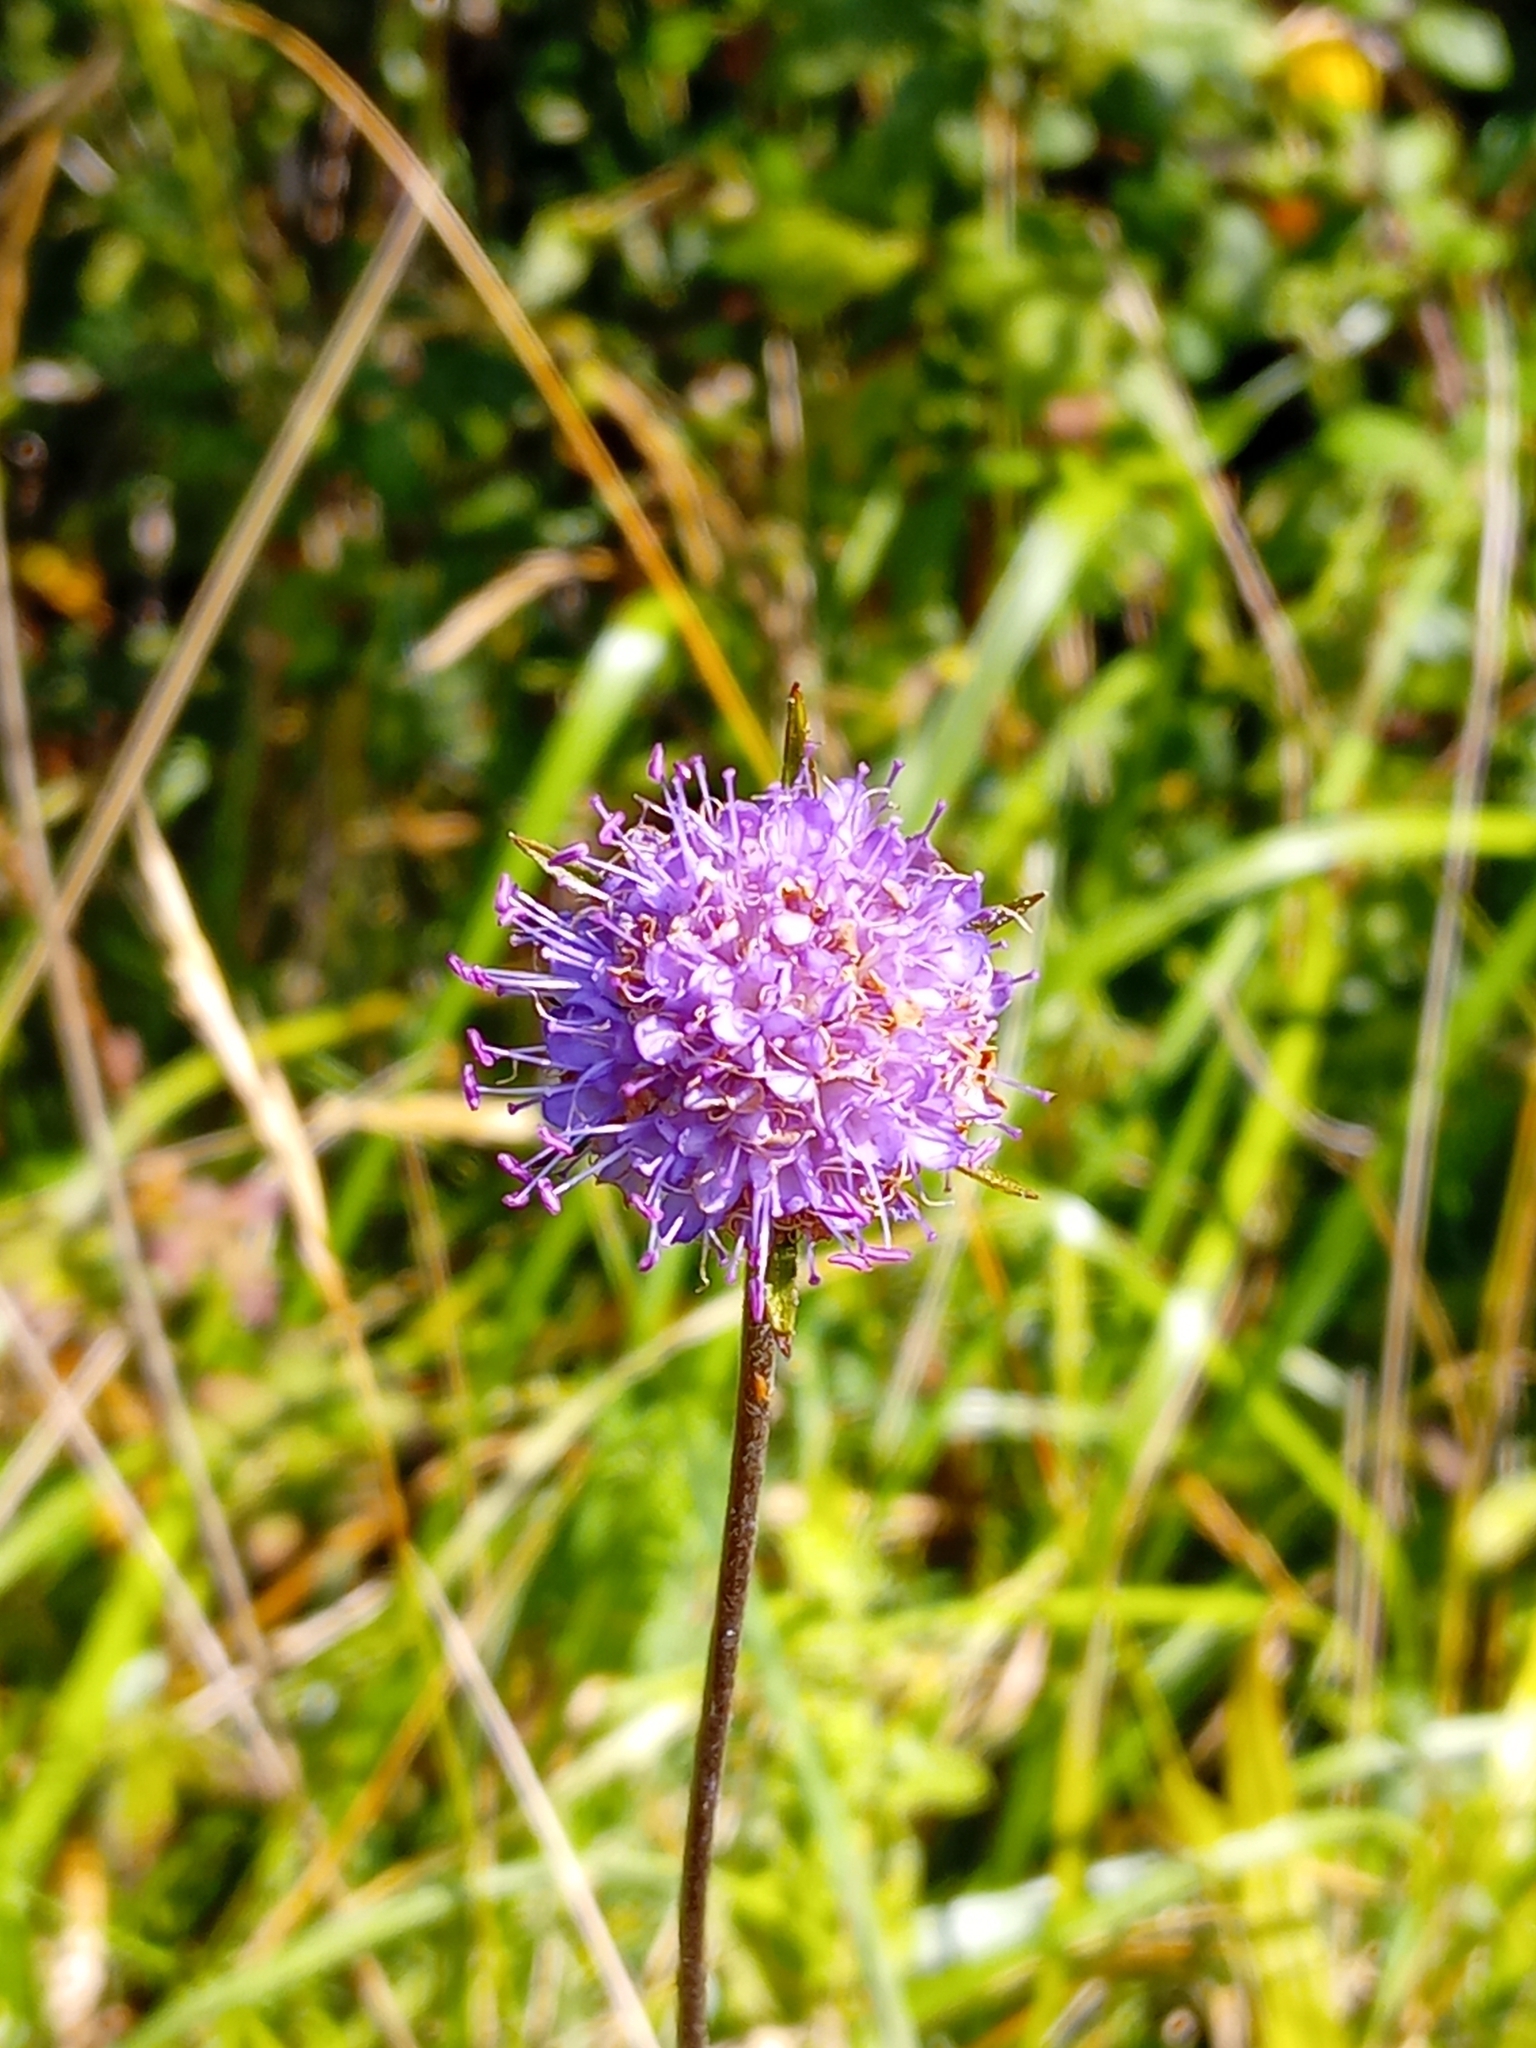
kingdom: Plantae
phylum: Tracheophyta
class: Magnoliopsida
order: Dipsacales
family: Caprifoliaceae
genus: Succisa
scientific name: Succisa pratensis
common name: Devil's-bit
